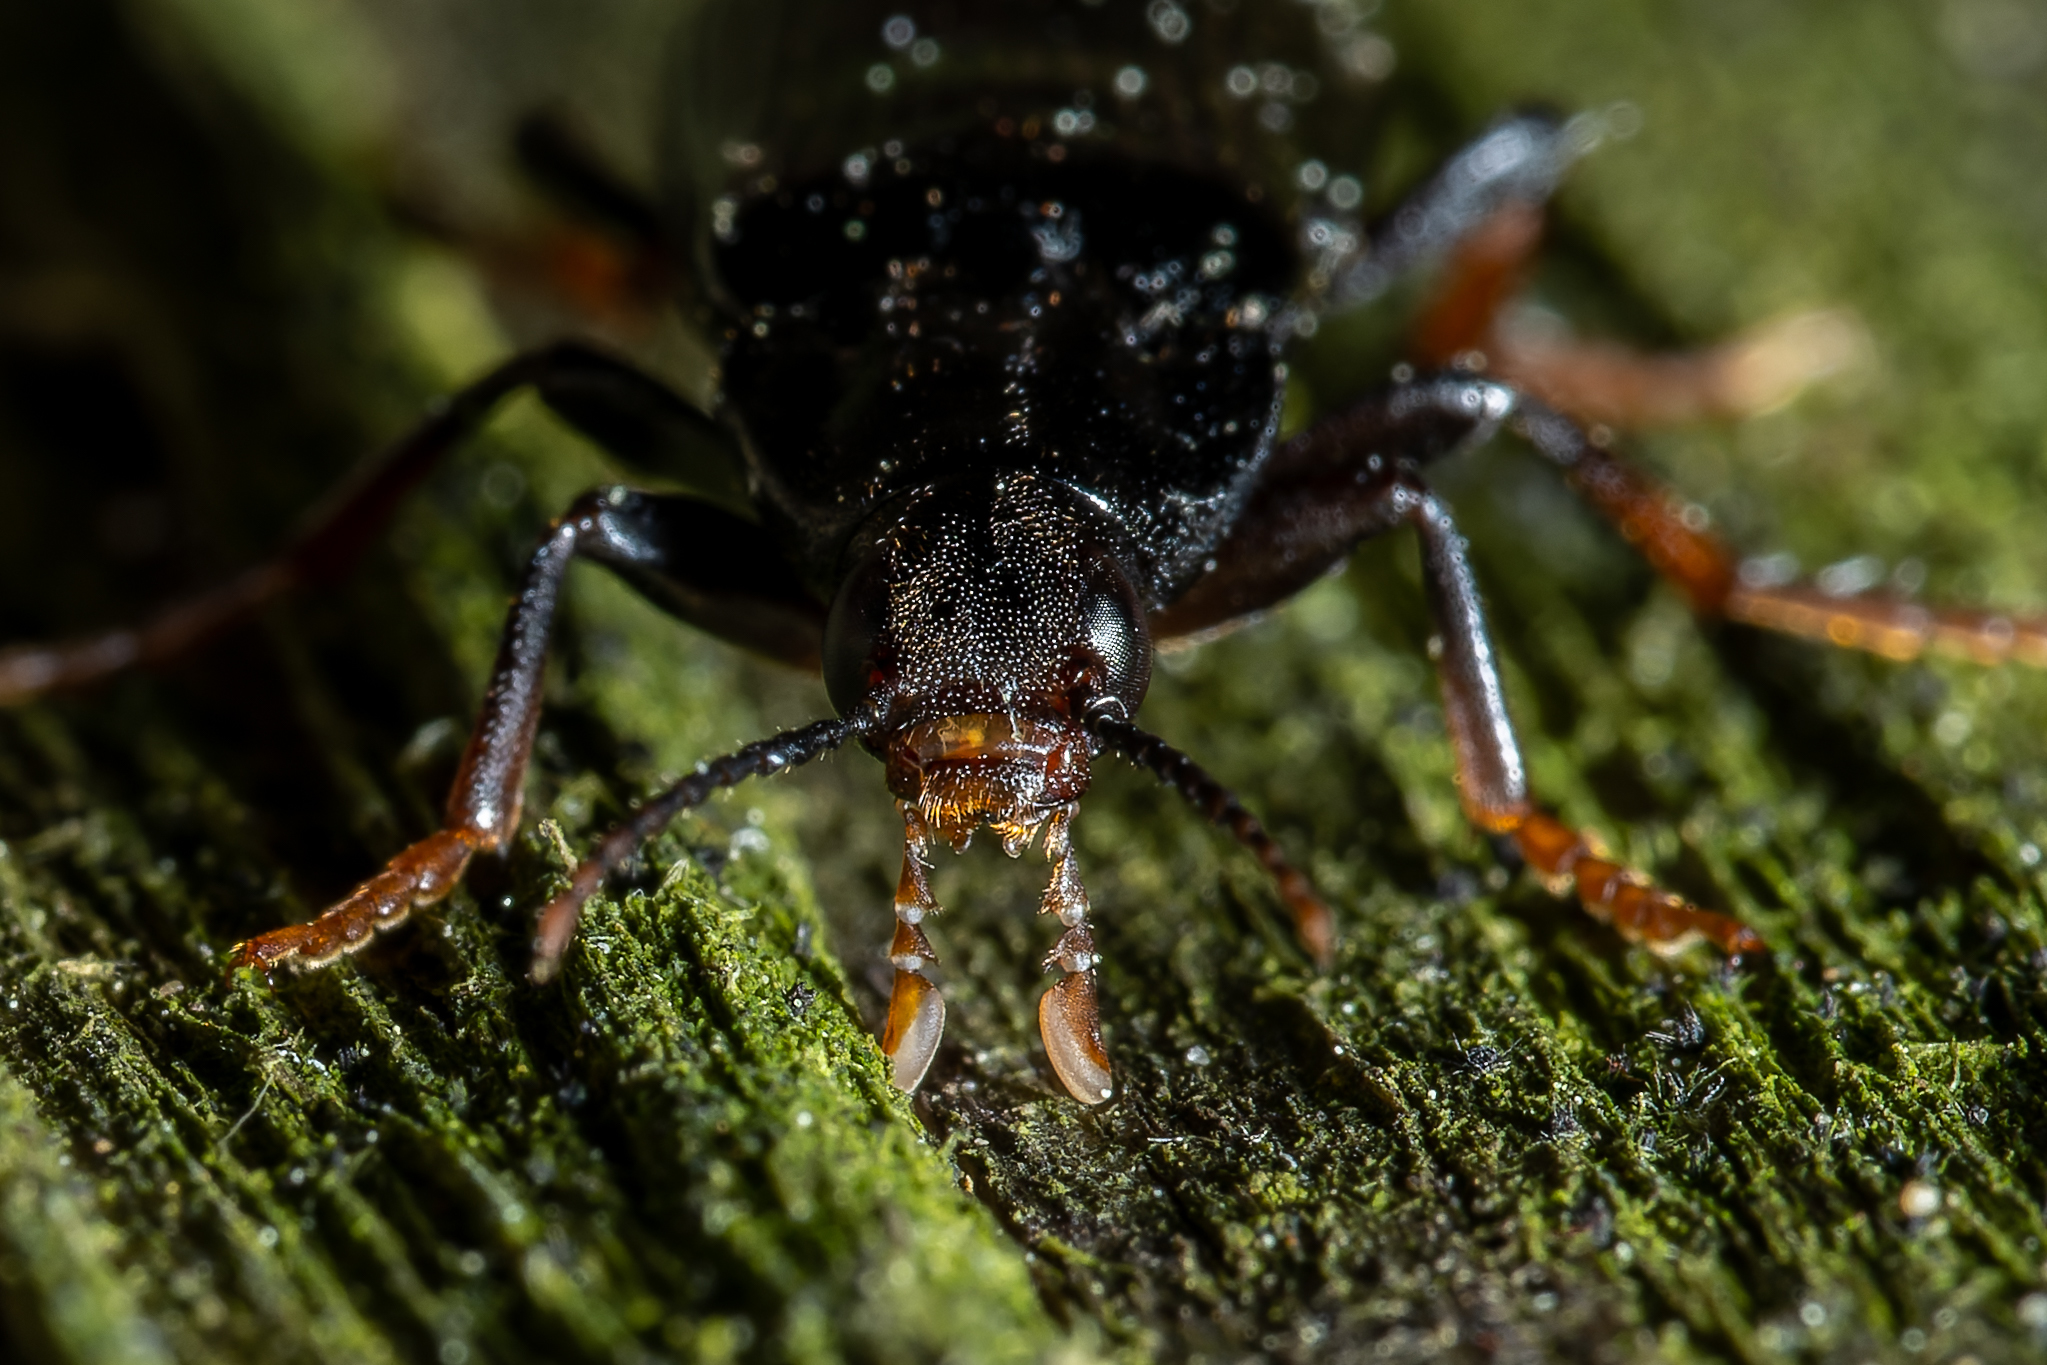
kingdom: Animalia
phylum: Arthropoda
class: Insecta
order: Coleoptera
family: Melandryidae
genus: Melandrya
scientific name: Melandrya striata
